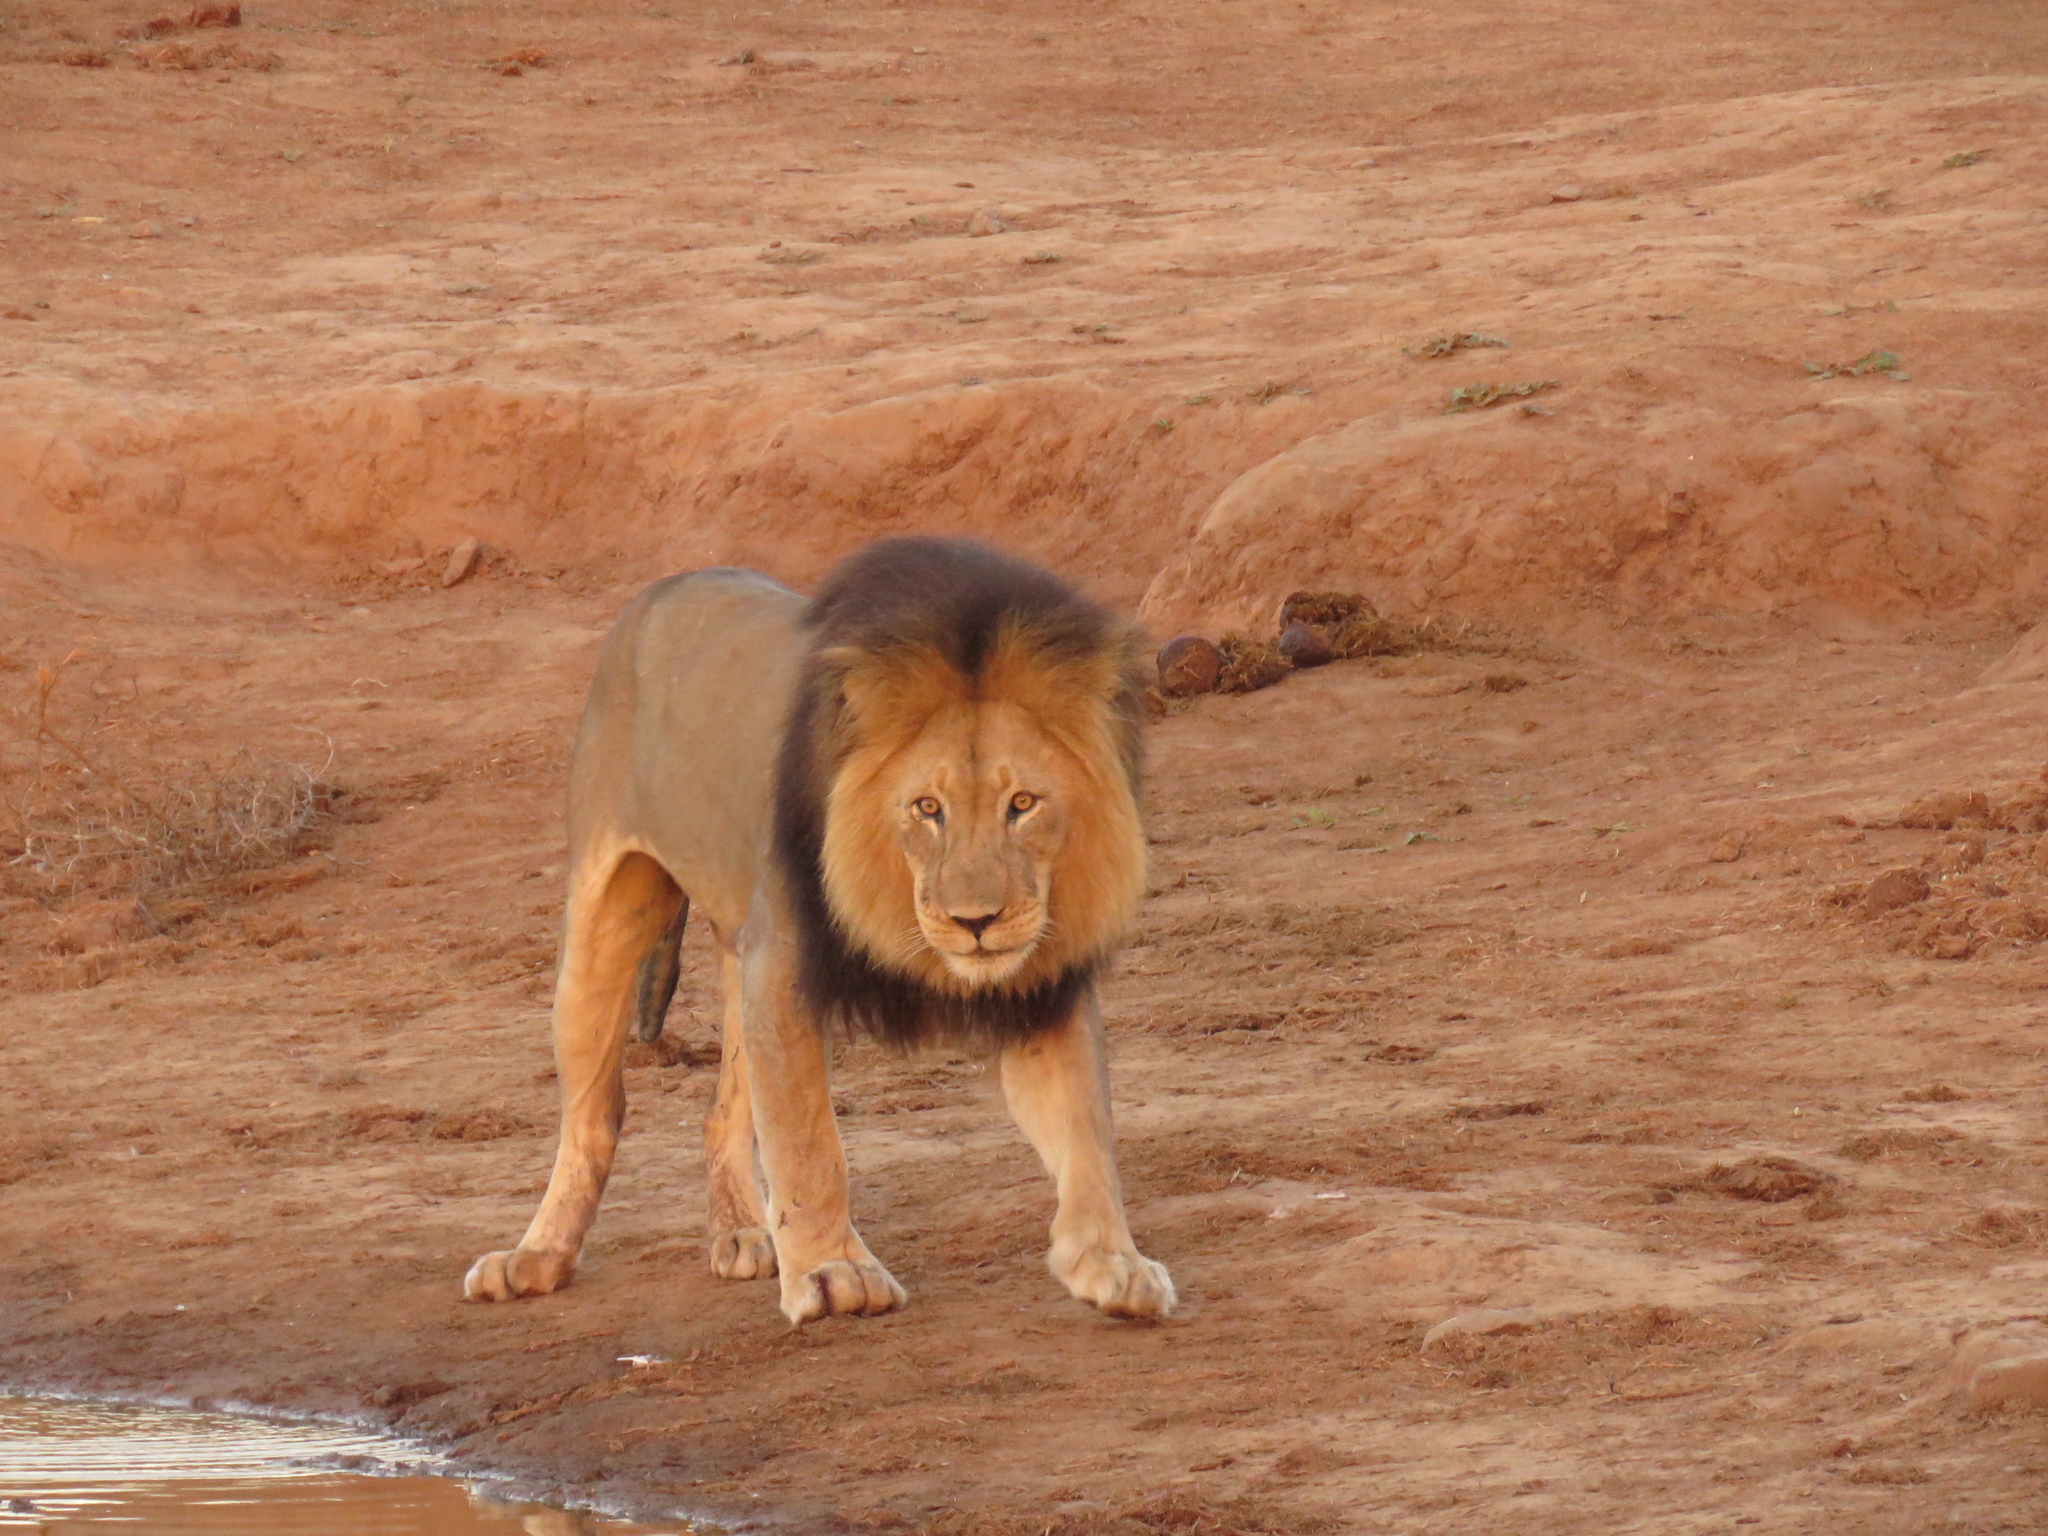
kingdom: Animalia
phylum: Chordata
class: Mammalia
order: Carnivora
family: Felidae
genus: Panthera
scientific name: Panthera leo
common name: Lion
